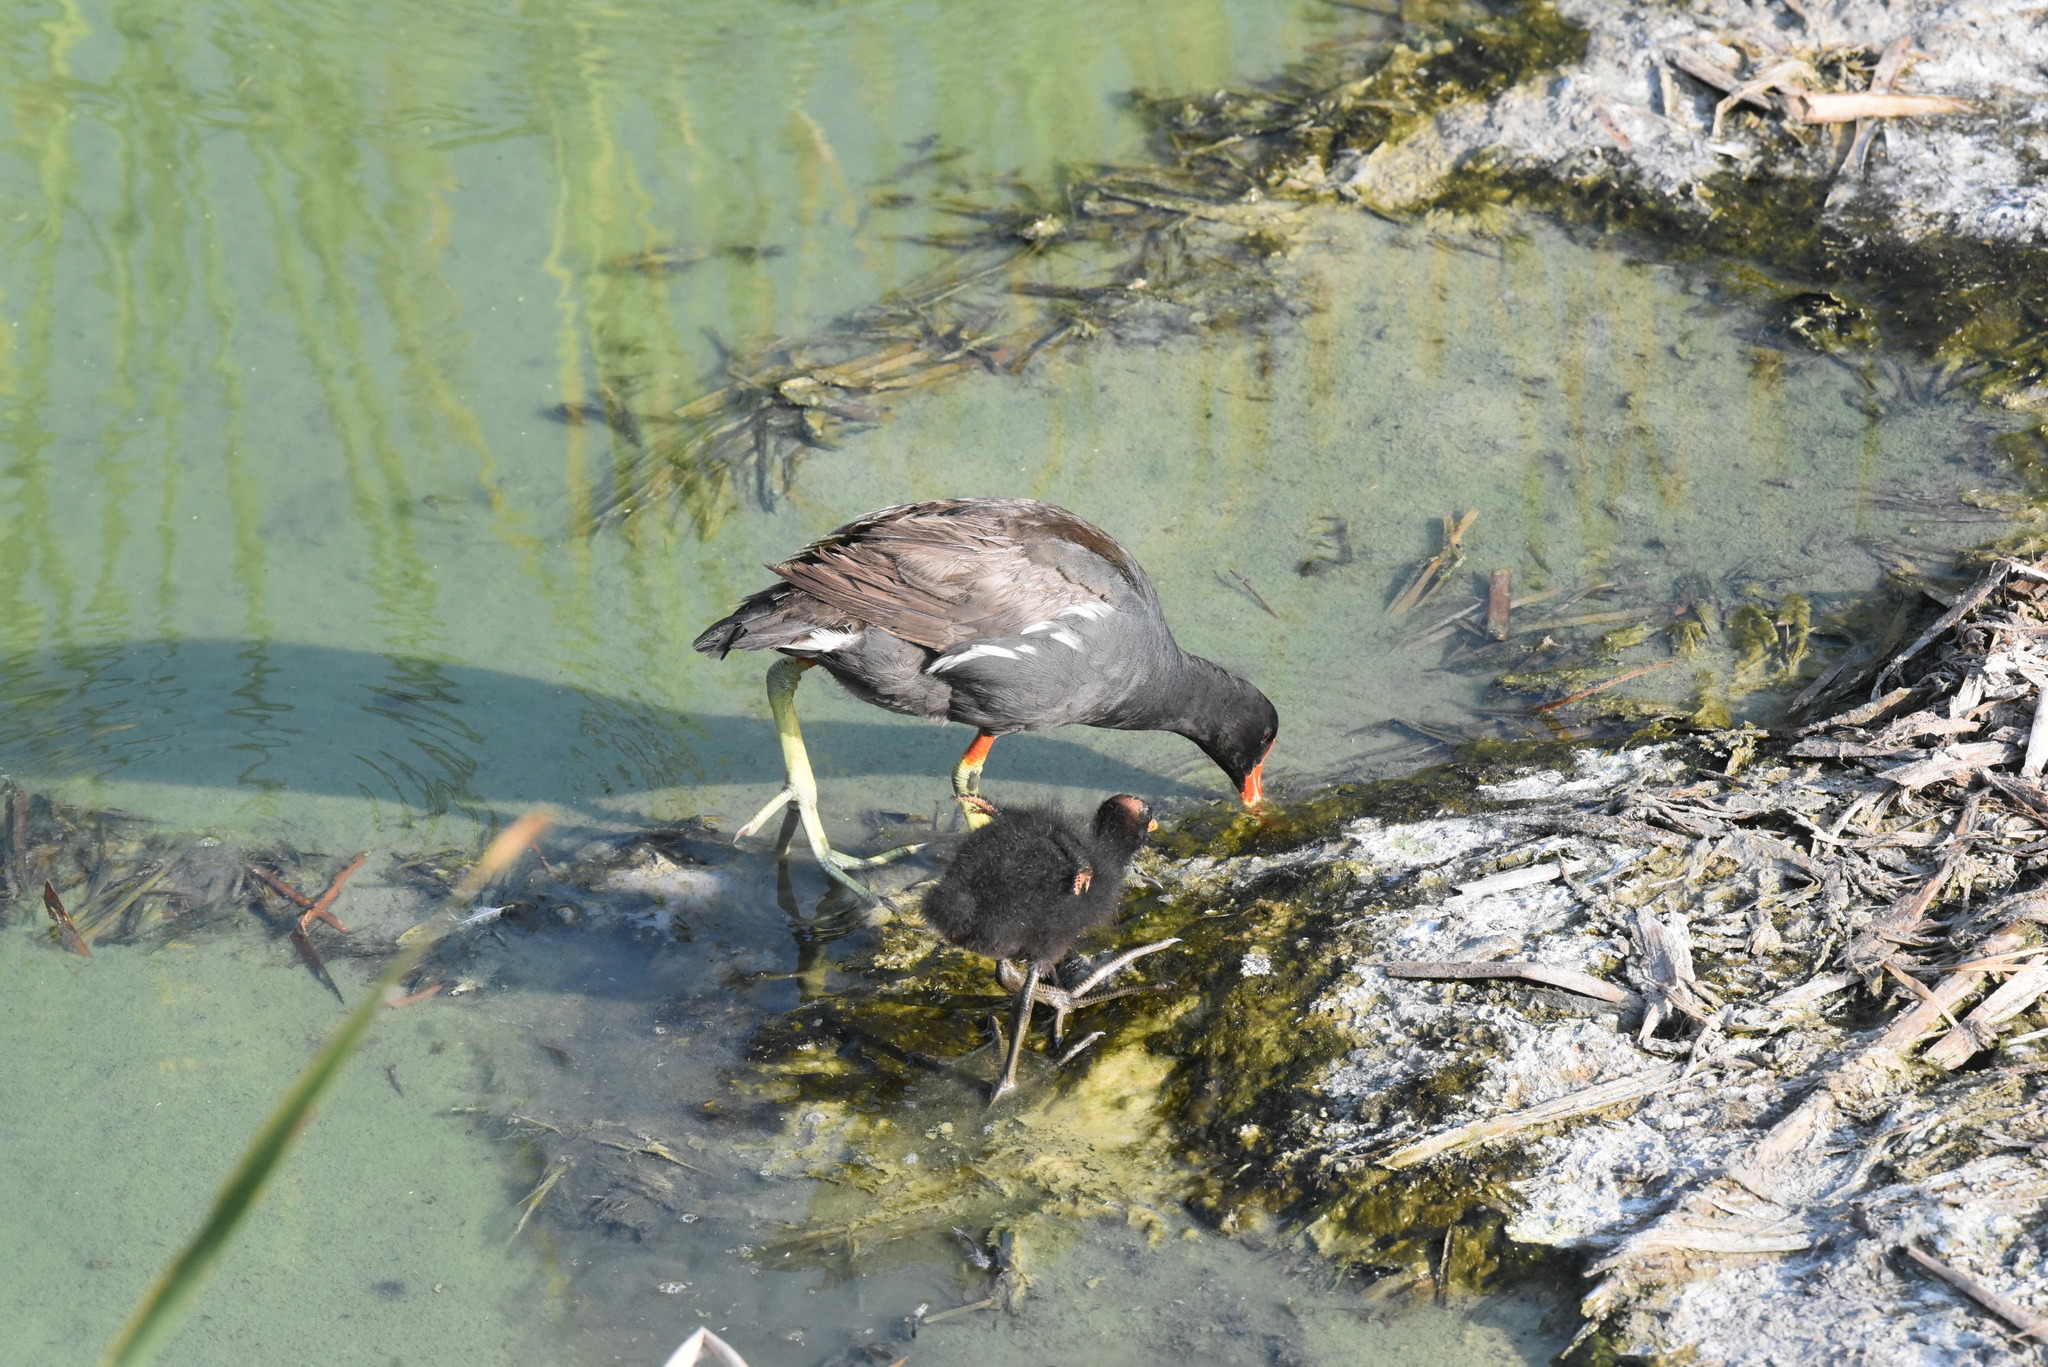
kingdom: Animalia
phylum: Chordata
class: Aves
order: Gruiformes
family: Rallidae
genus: Gallinula
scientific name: Gallinula chloropus
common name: Common moorhen
